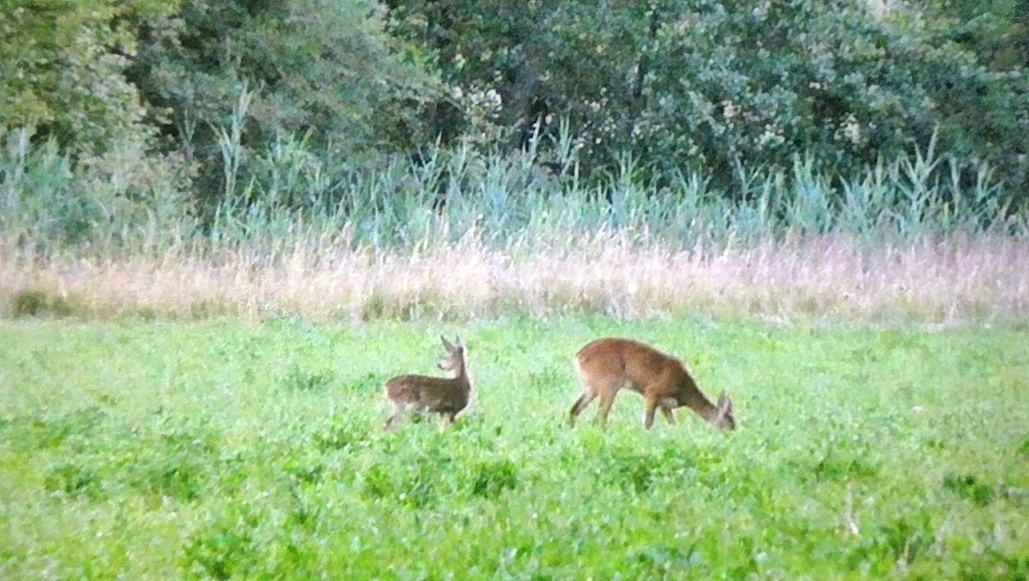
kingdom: Animalia
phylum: Chordata
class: Mammalia
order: Artiodactyla
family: Cervidae
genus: Capreolus
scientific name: Capreolus capreolus
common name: Western roe deer
